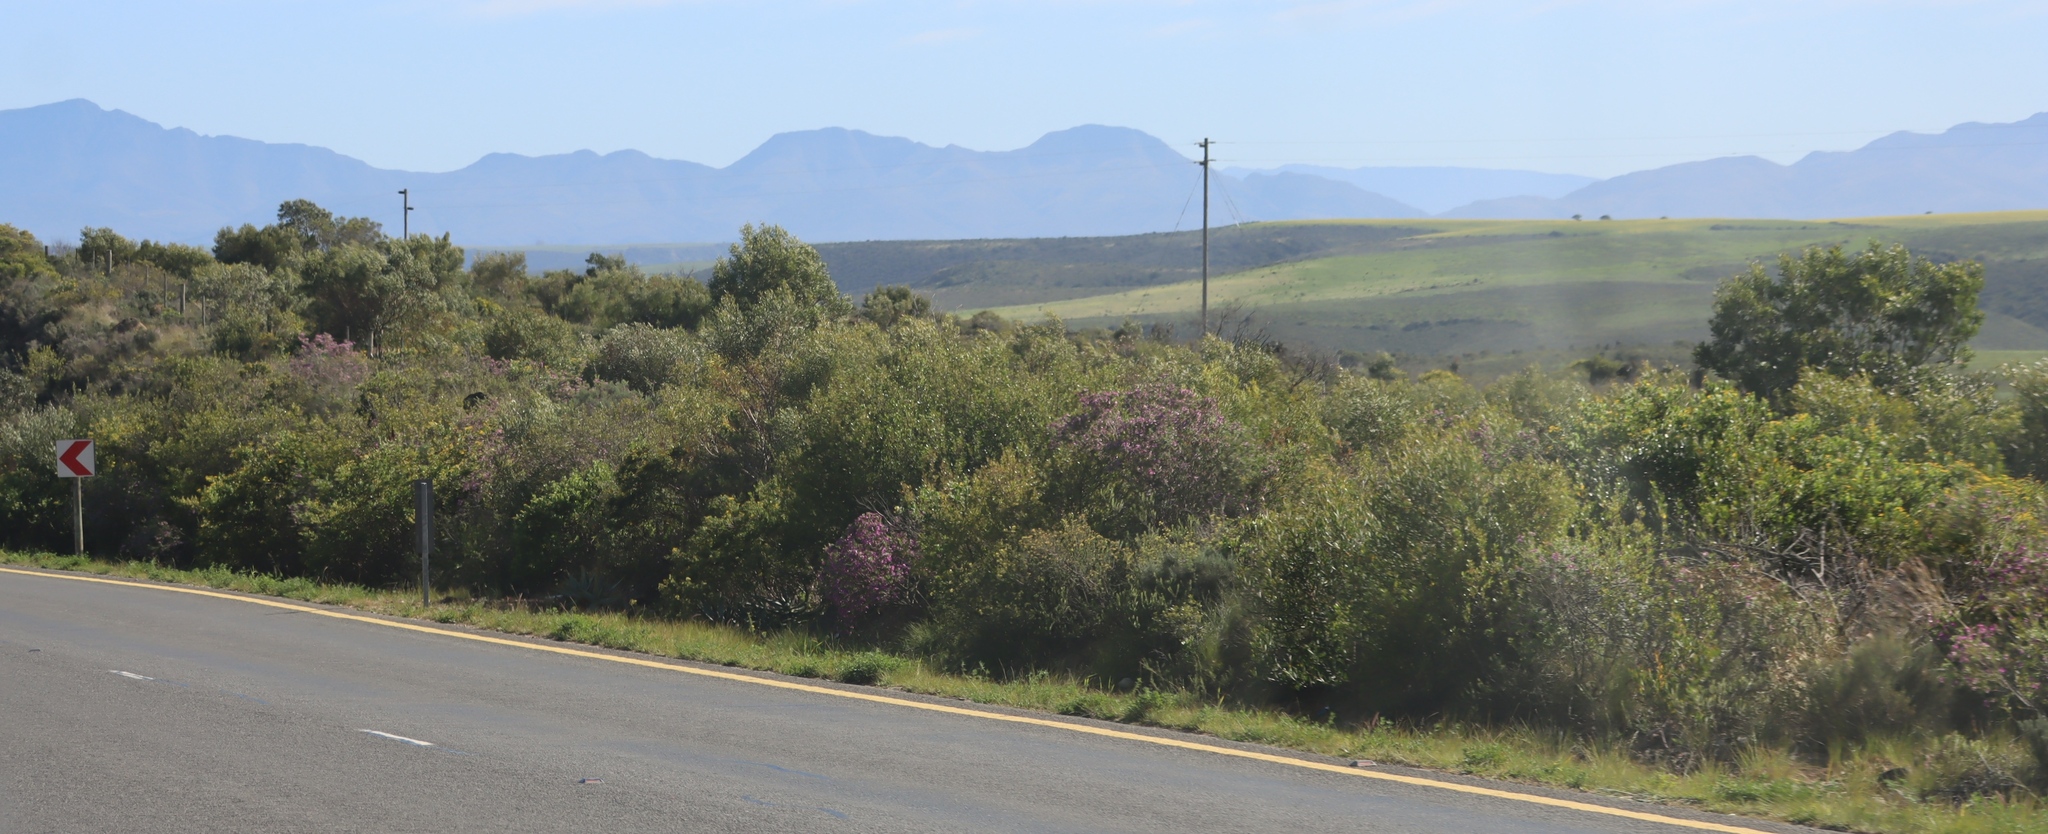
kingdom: Plantae
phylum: Tracheophyta
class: Magnoliopsida
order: Fabales
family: Polygalaceae
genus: Polygala
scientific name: Polygala myrtifolia
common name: Myrtle-leaf milkwort
